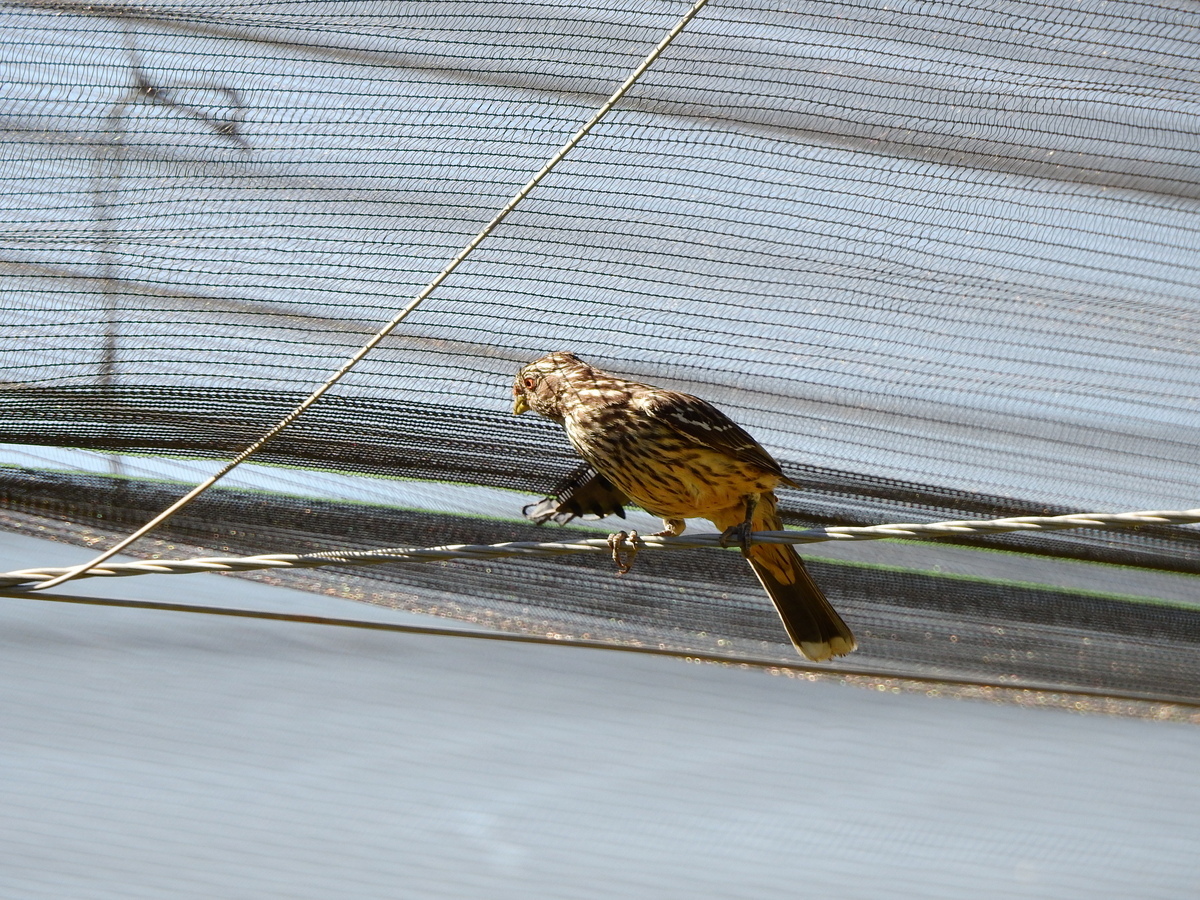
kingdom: Animalia
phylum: Chordata
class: Aves
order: Passeriformes
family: Cotingidae
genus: Phytotoma
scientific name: Phytotoma rutila
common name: White-tipped plantcutter
